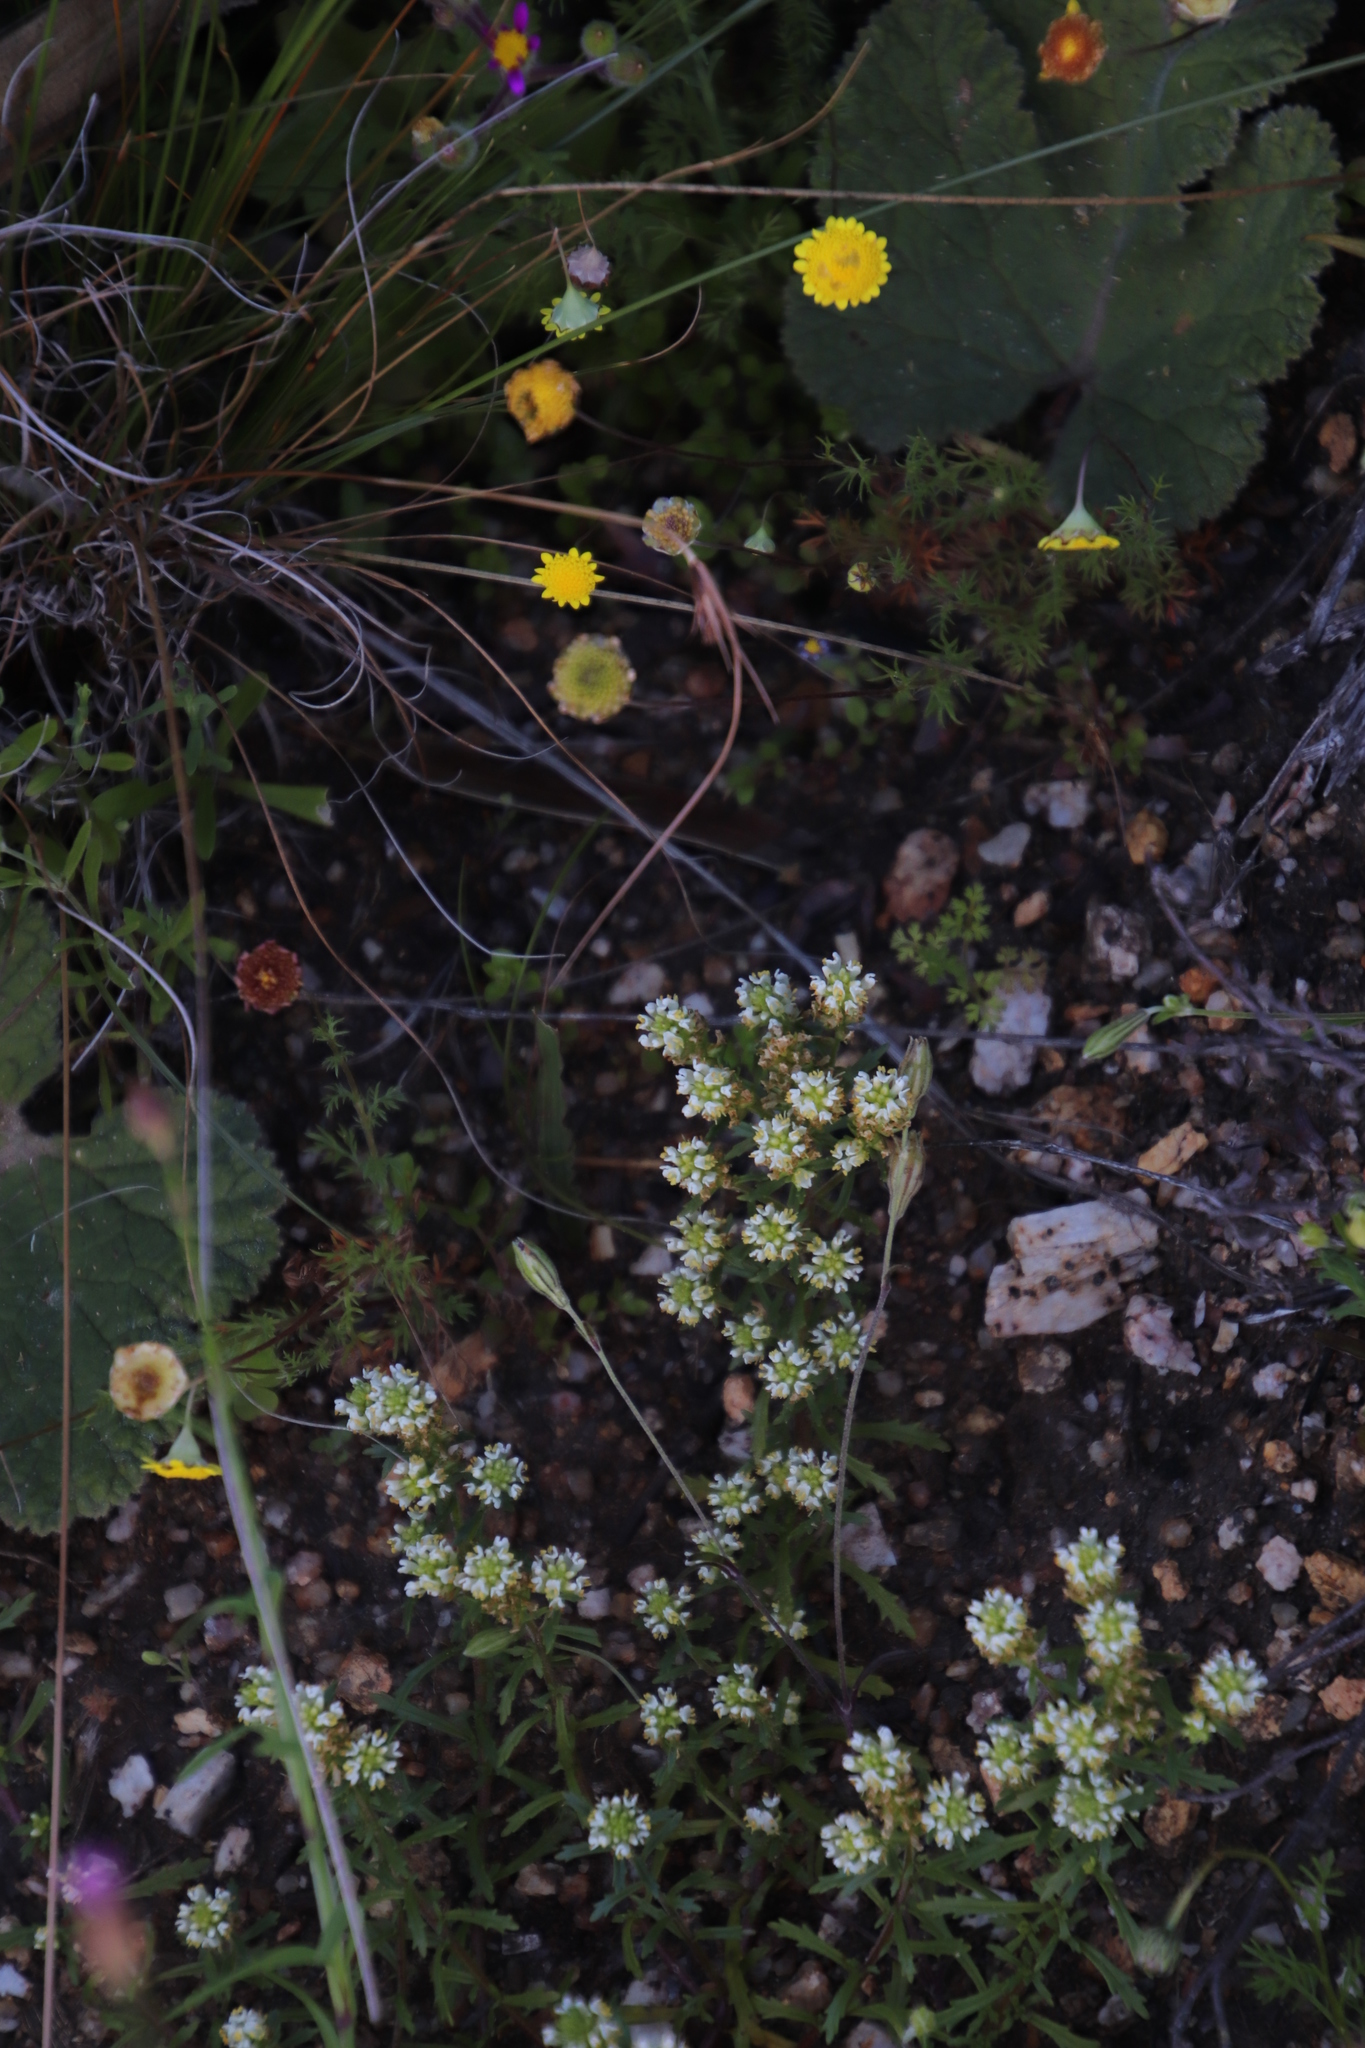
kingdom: Plantae
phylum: Tracheophyta
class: Magnoliopsida
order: Lamiales
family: Scrophulariaceae
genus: Dischisma
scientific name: Dischisma ciliatum
